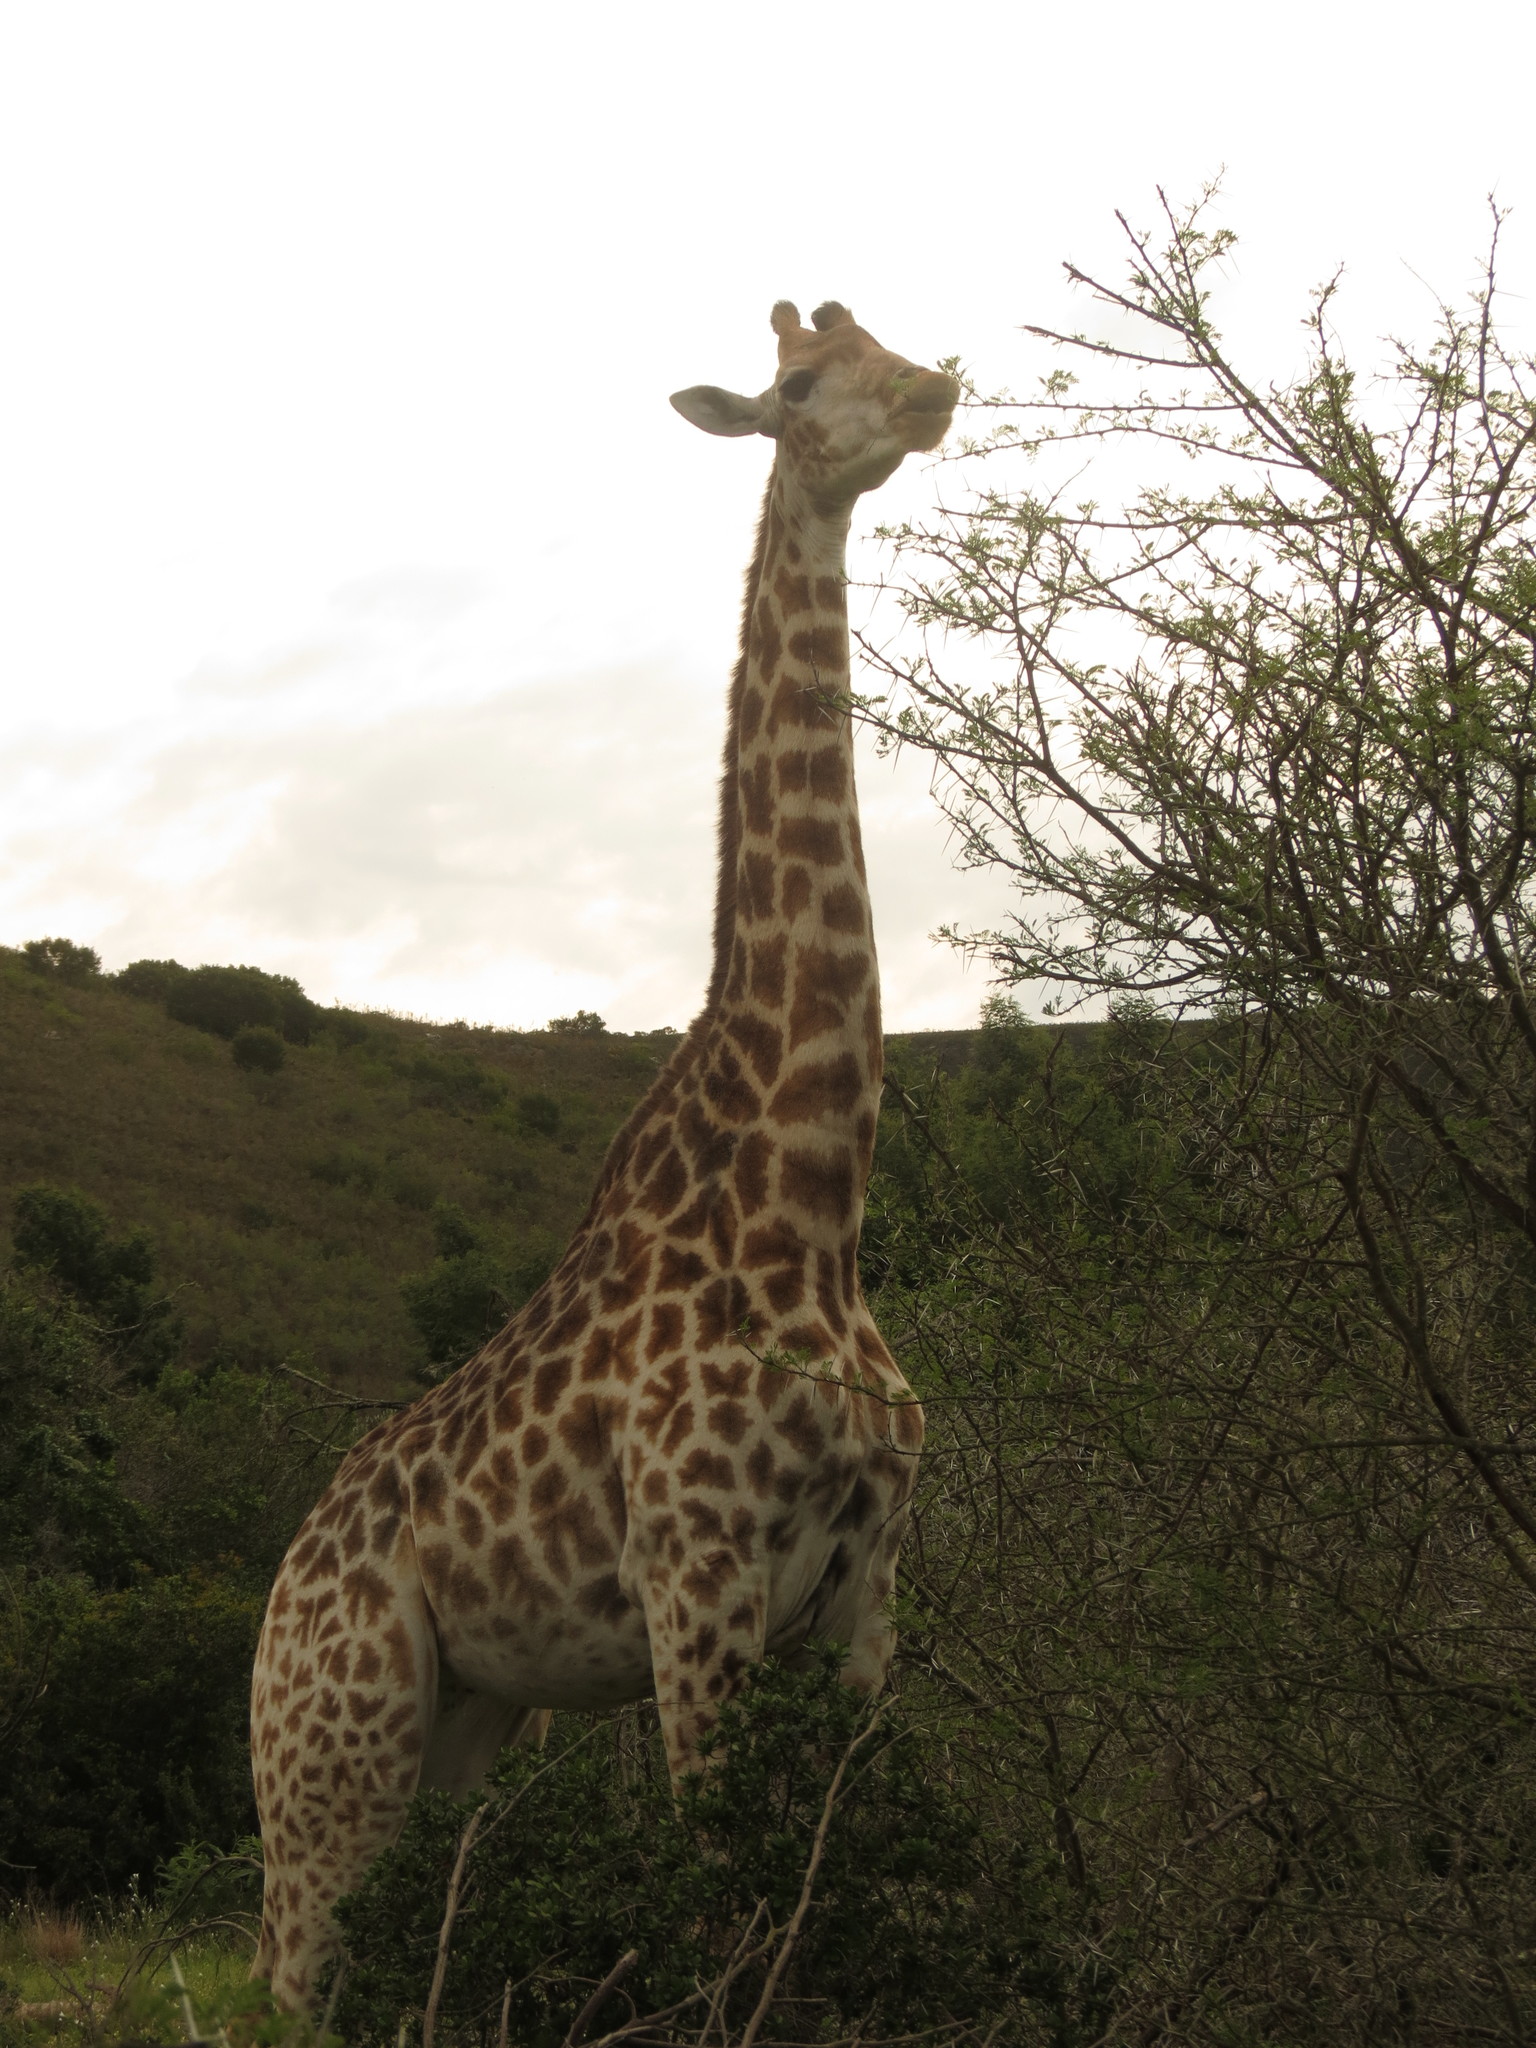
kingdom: Animalia
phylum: Chordata
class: Mammalia
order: Artiodactyla
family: Giraffidae
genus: Giraffa
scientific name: Giraffa giraffa
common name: Southern giraffe
